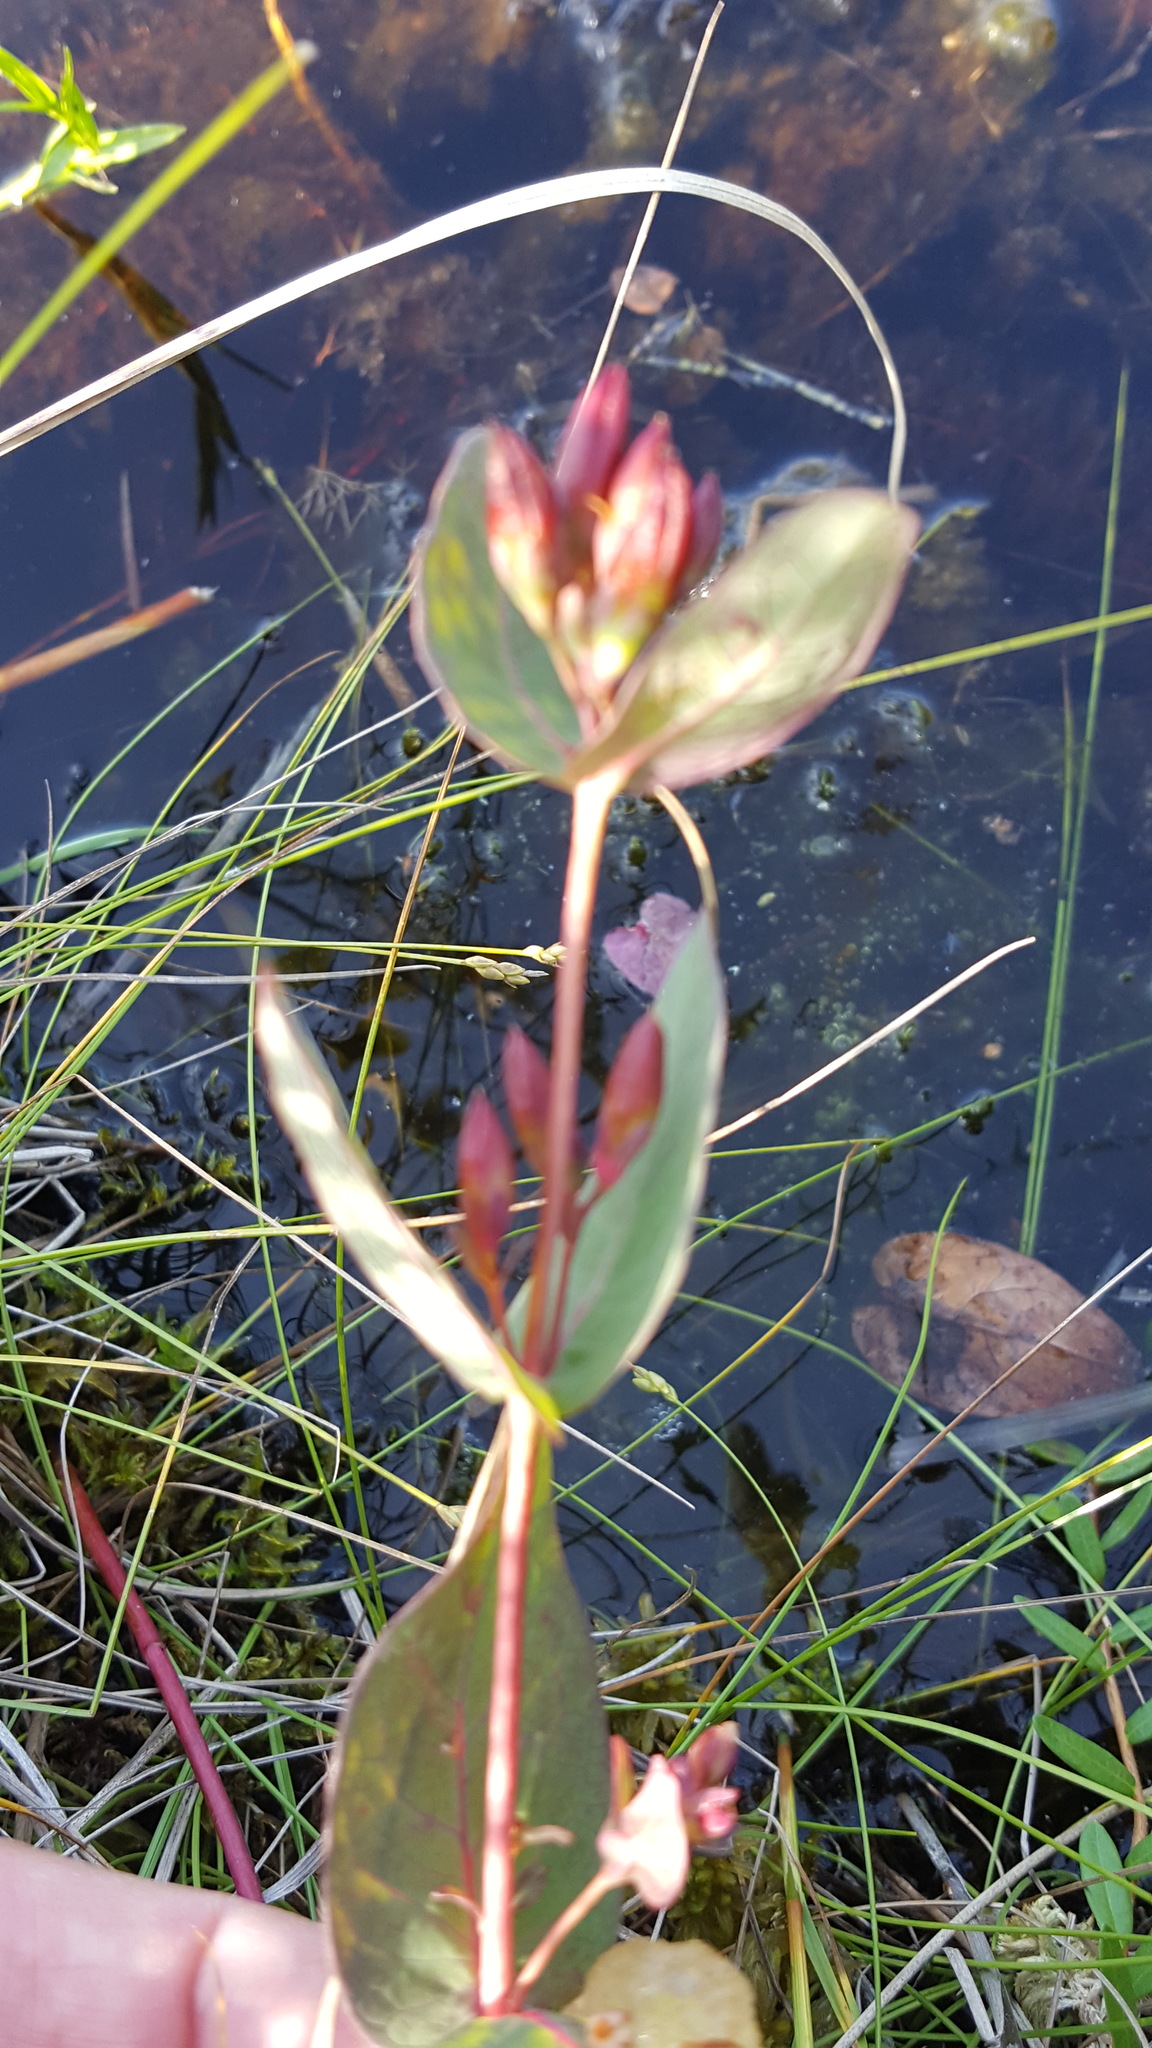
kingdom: Plantae
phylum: Tracheophyta
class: Magnoliopsida
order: Malpighiales
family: Hypericaceae
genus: Triadenum
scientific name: Triadenum fraseri
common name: Fraser's marsh st. johnswort
